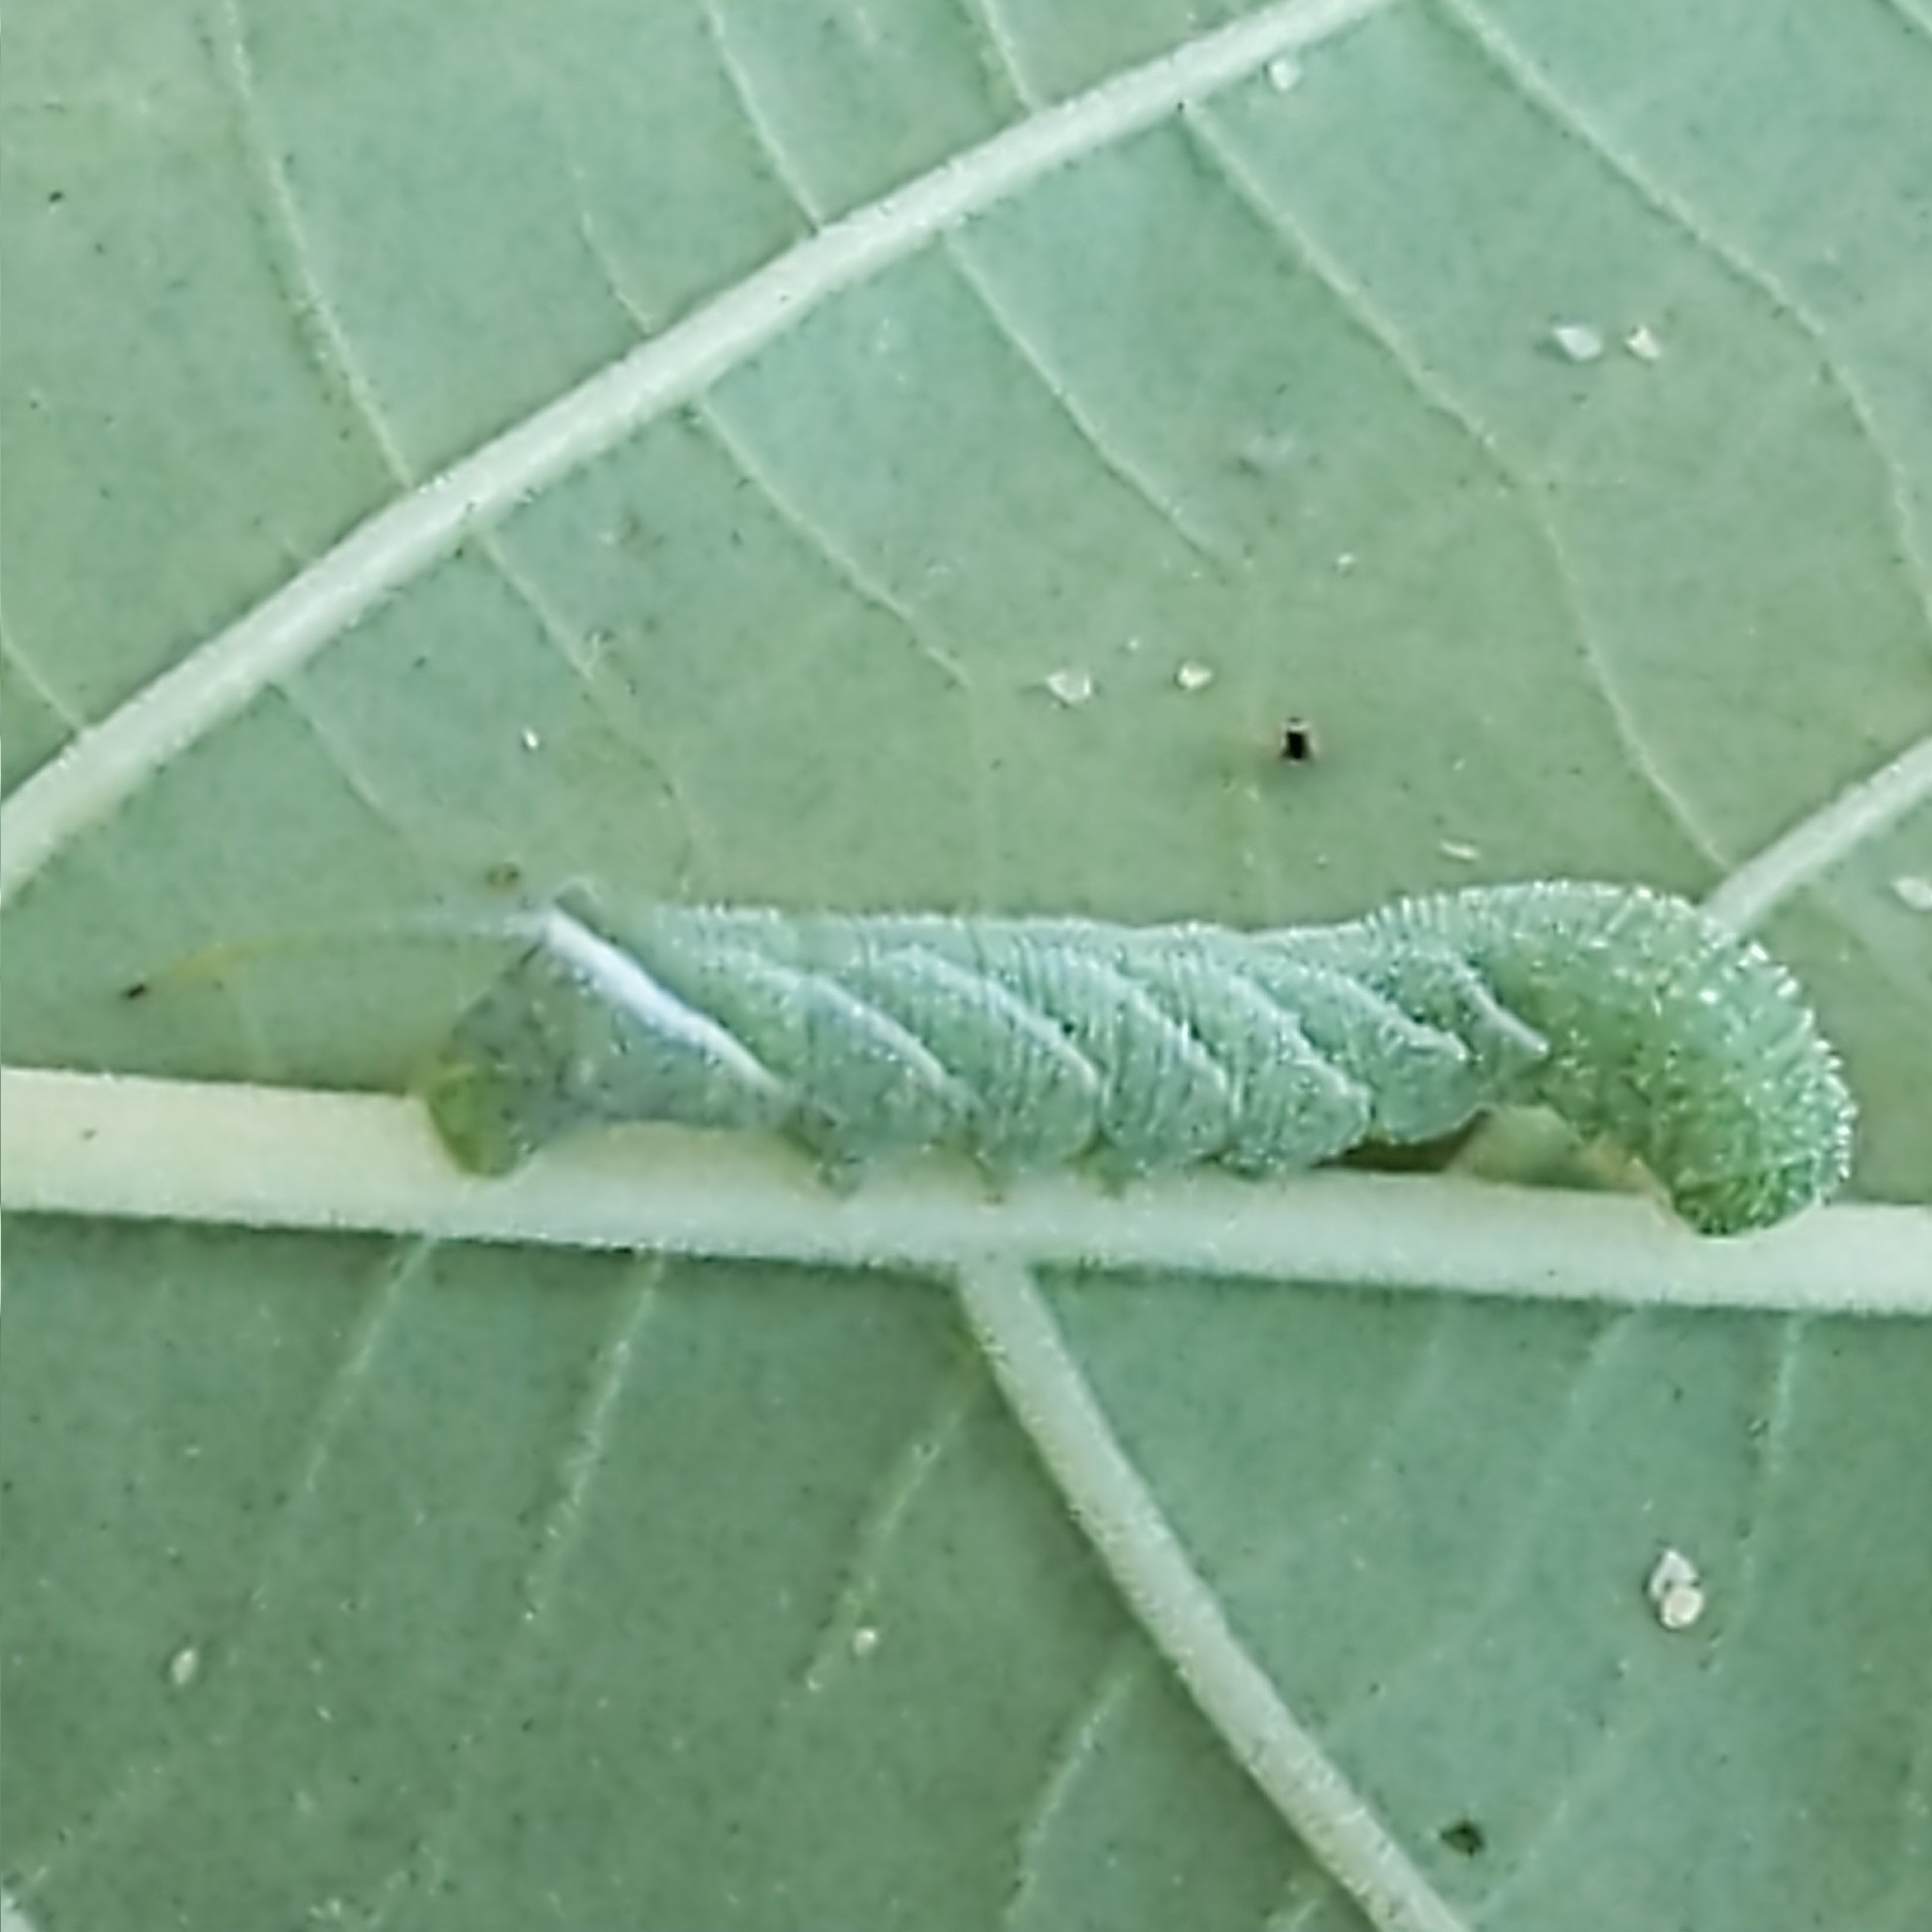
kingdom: Animalia
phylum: Arthropoda
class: Insecta
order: Lepidoptera
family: Sphingidae
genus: Manduca
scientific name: Manduca sexta
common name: Carolina sphinx
